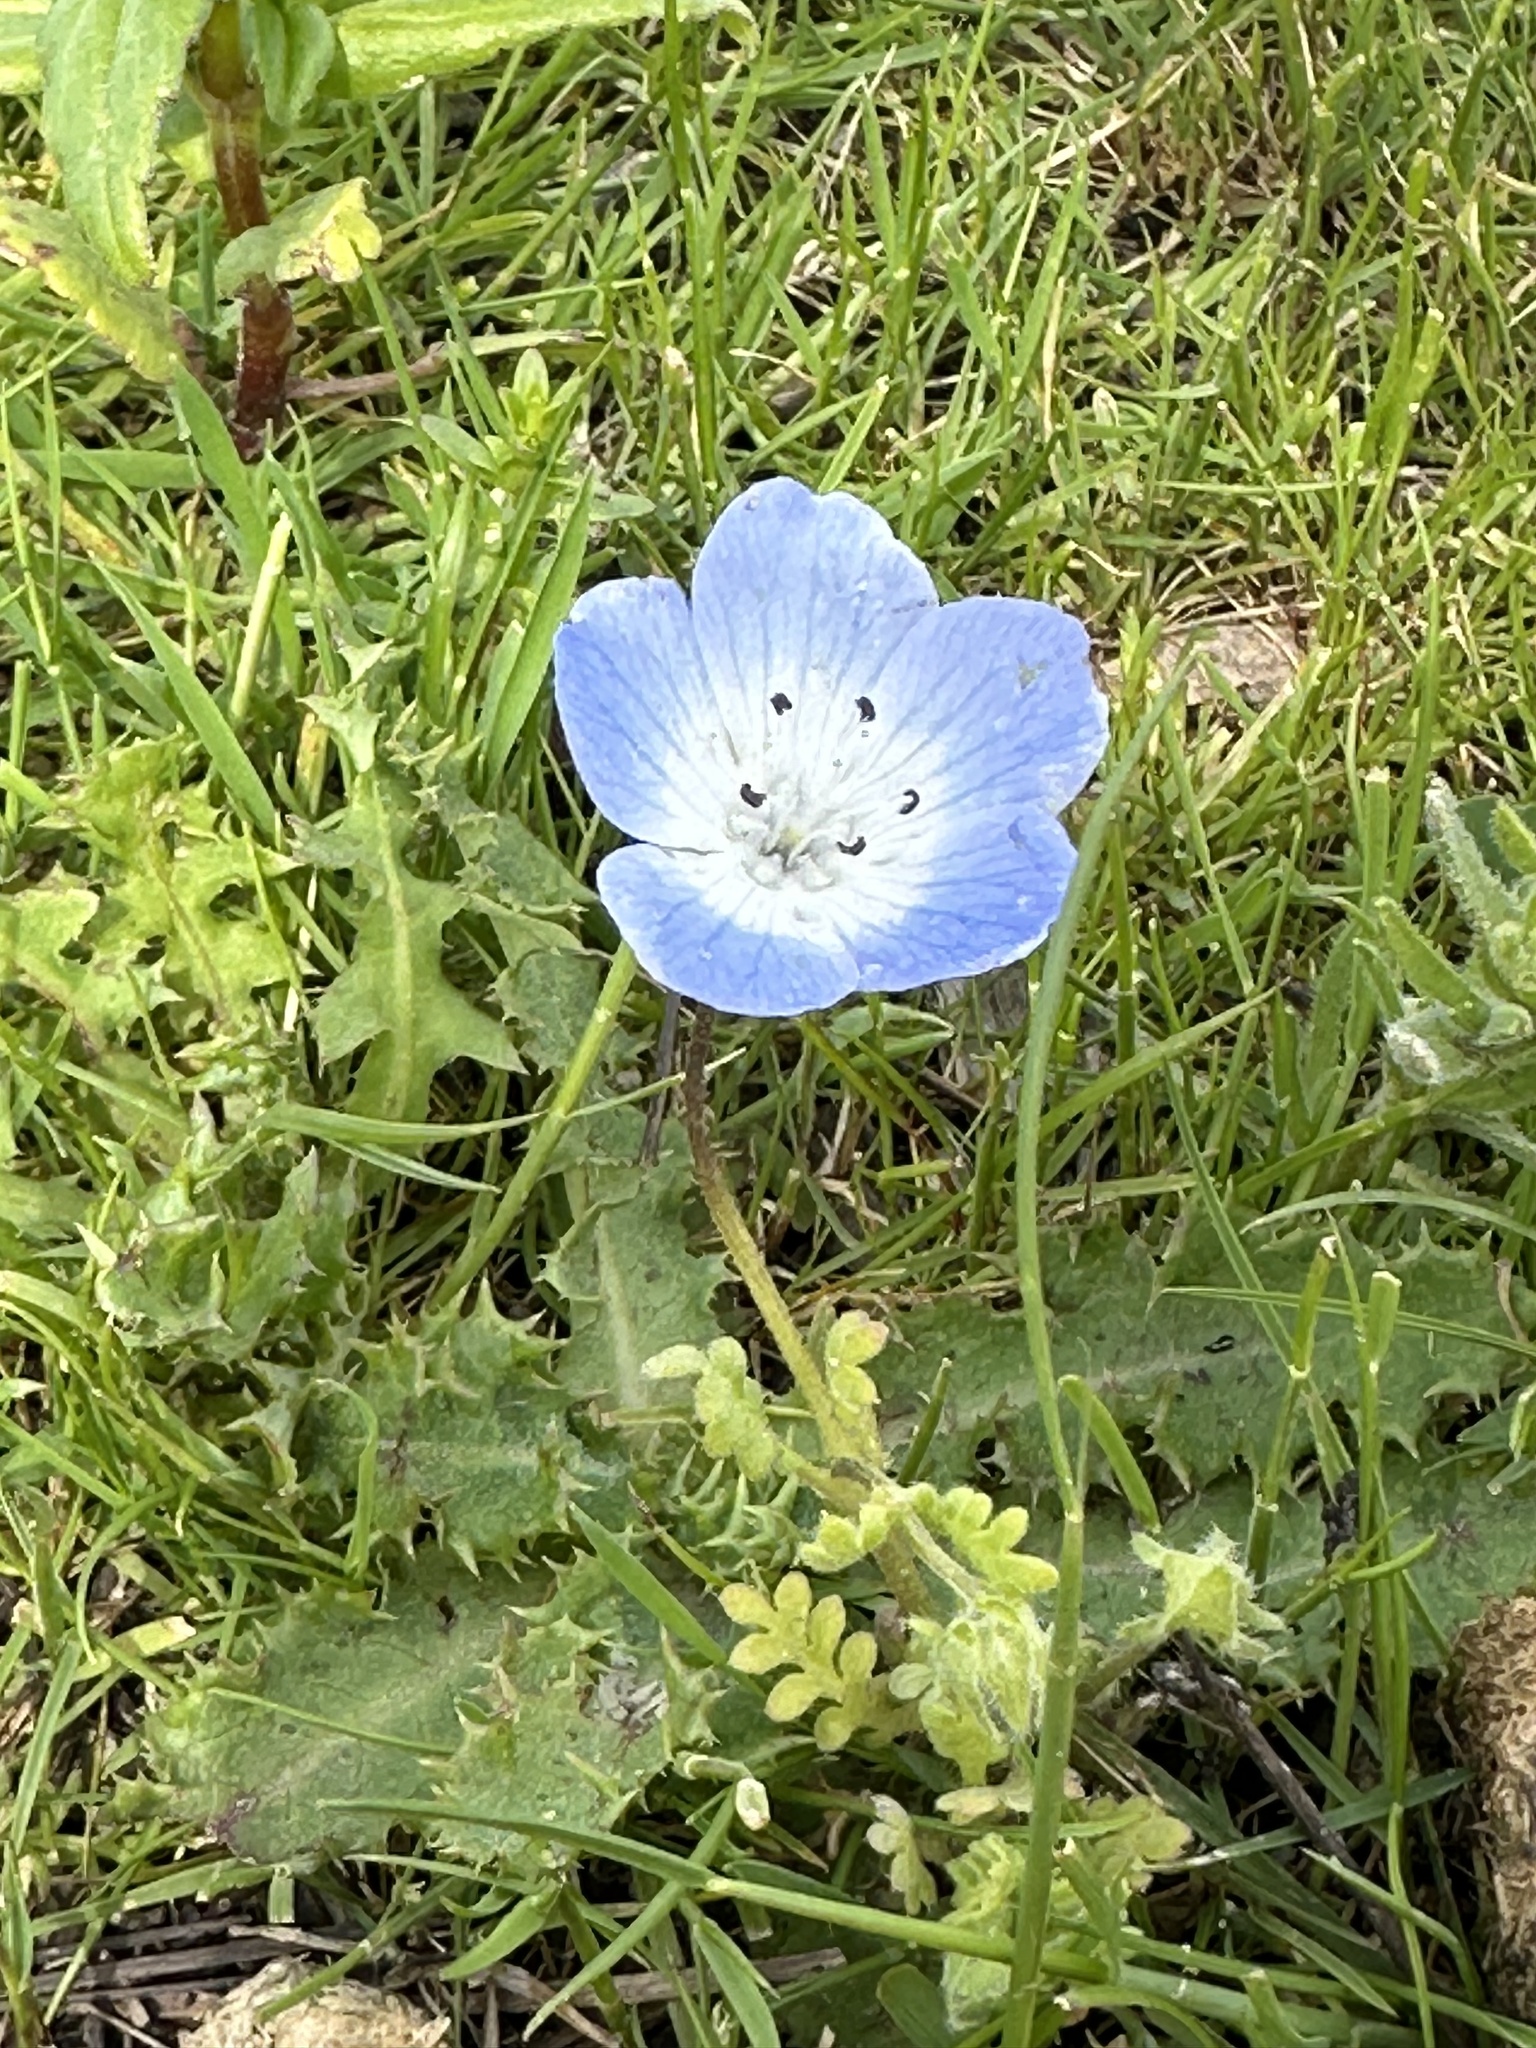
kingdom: Plantae
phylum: Tracheophyta
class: Magnoliopsida
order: Boraginales
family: Hydrophyllaceae
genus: Nemophila
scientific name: Nemophila menziesii
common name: Baby's-blue-eyes
